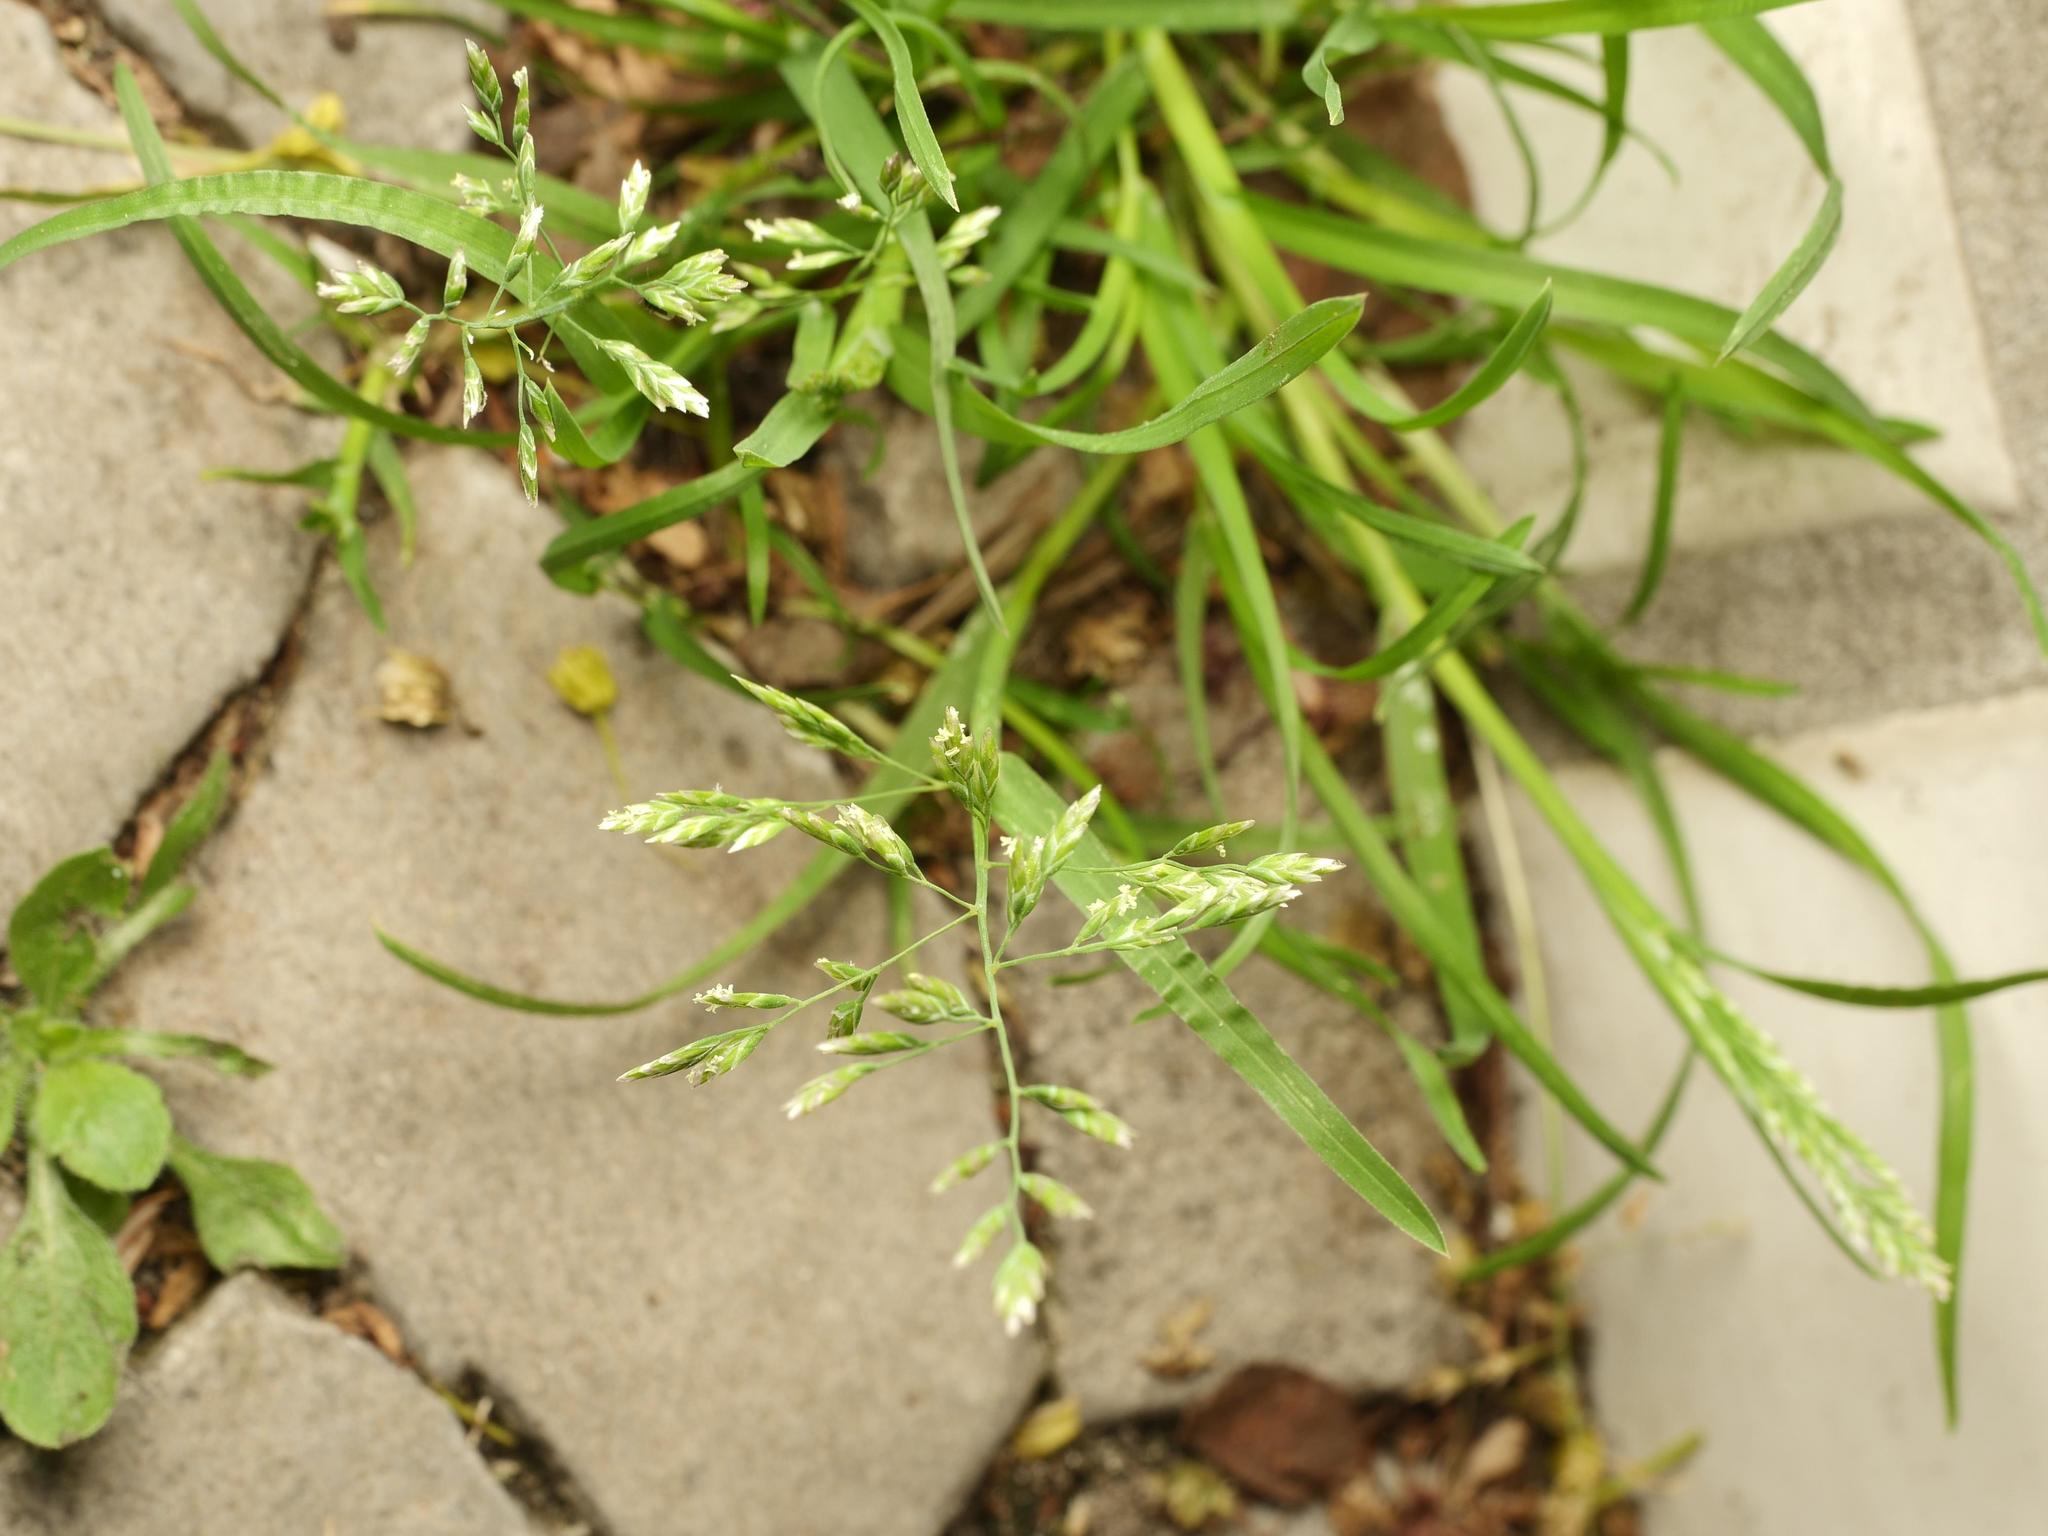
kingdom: Plantae
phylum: Tracheophyta
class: Liliopsida
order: Poales
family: Poaceae
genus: Poa
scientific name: Poa annua
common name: Annual bluegrass
